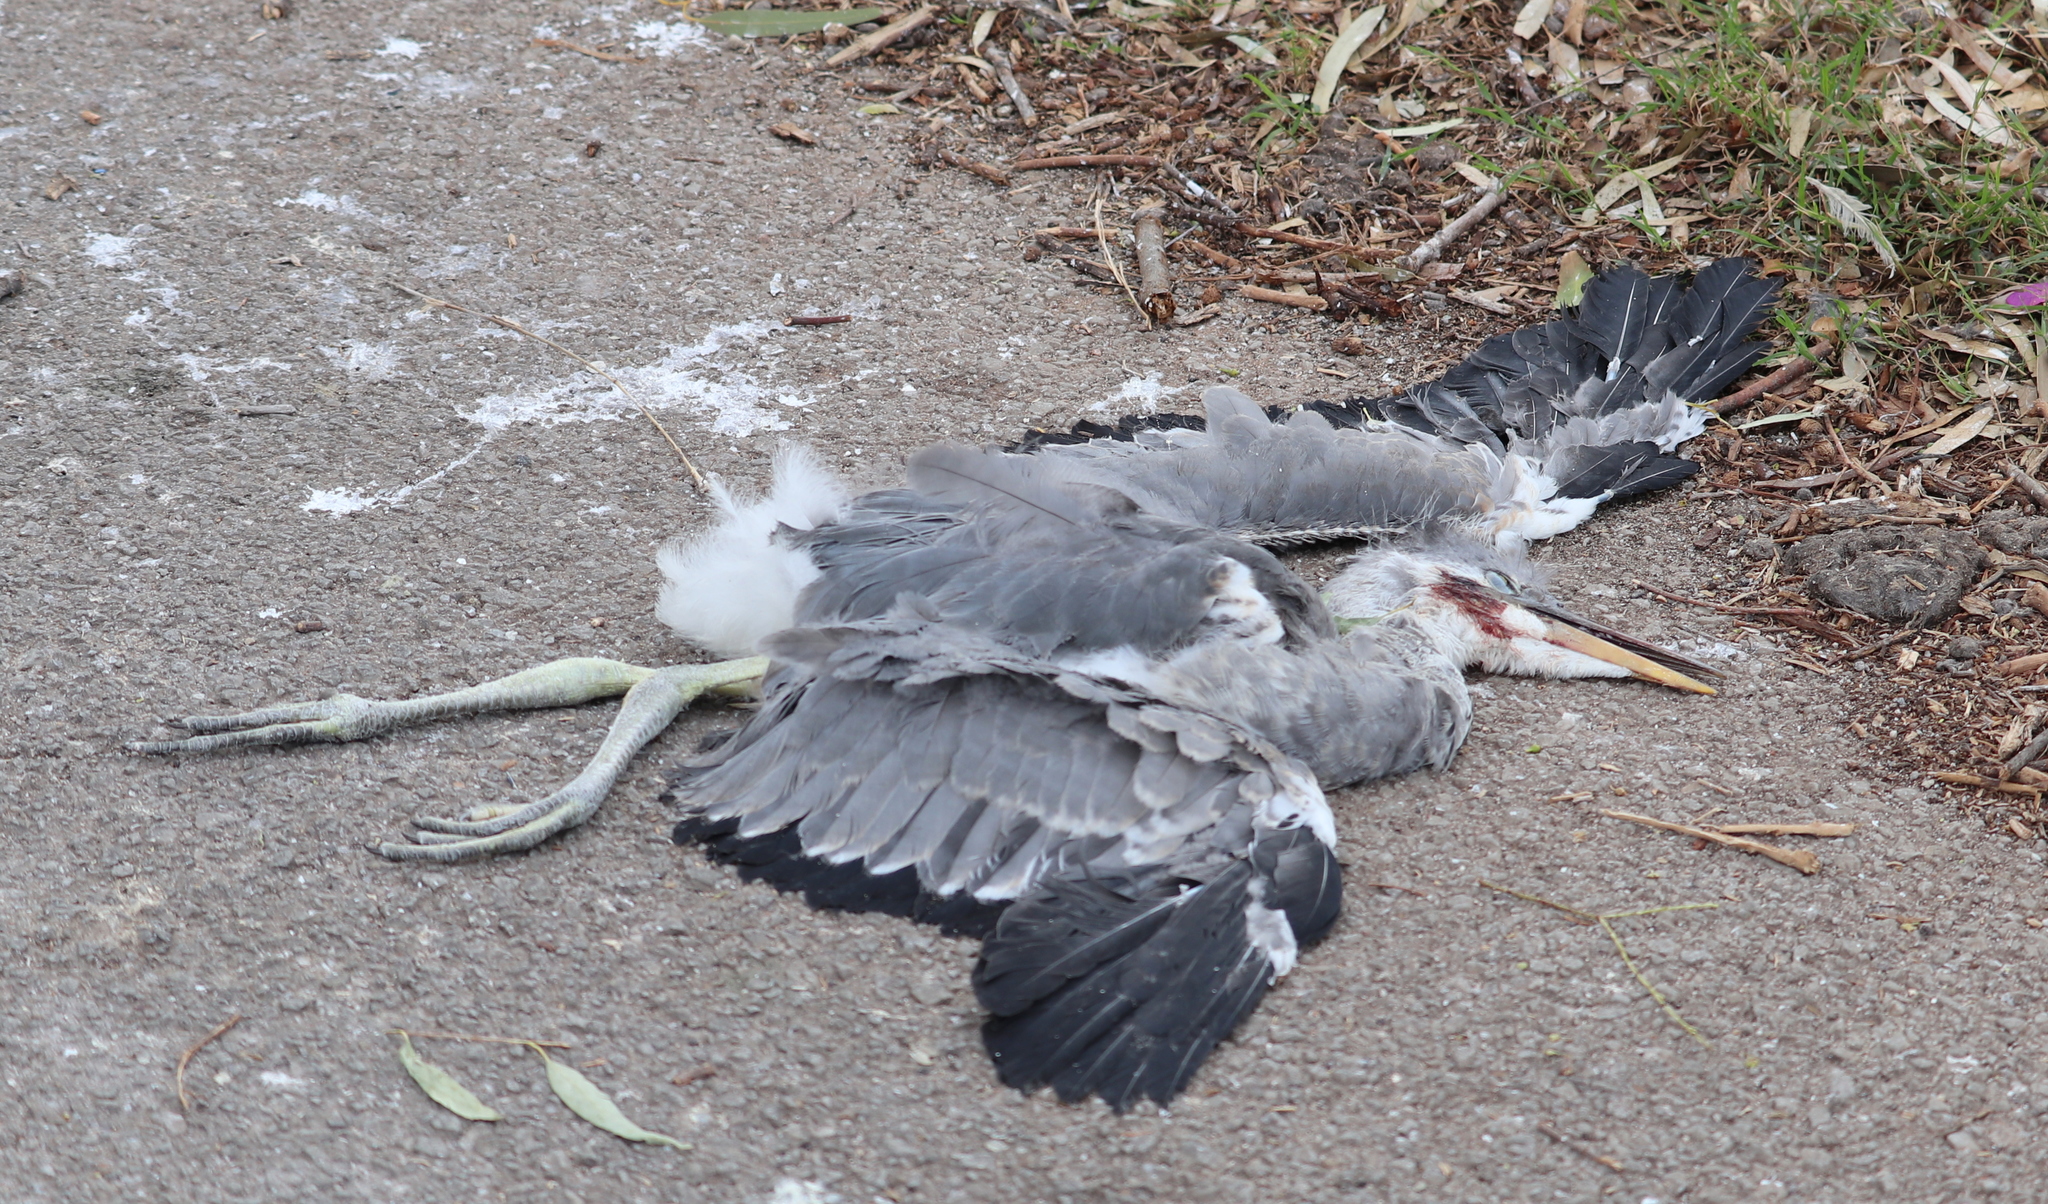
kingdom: Animalia
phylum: Chordata
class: Aves
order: Pelecaniformes
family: Ardeidae
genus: Ardea
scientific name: Ardea cinerea
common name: Grey heron
